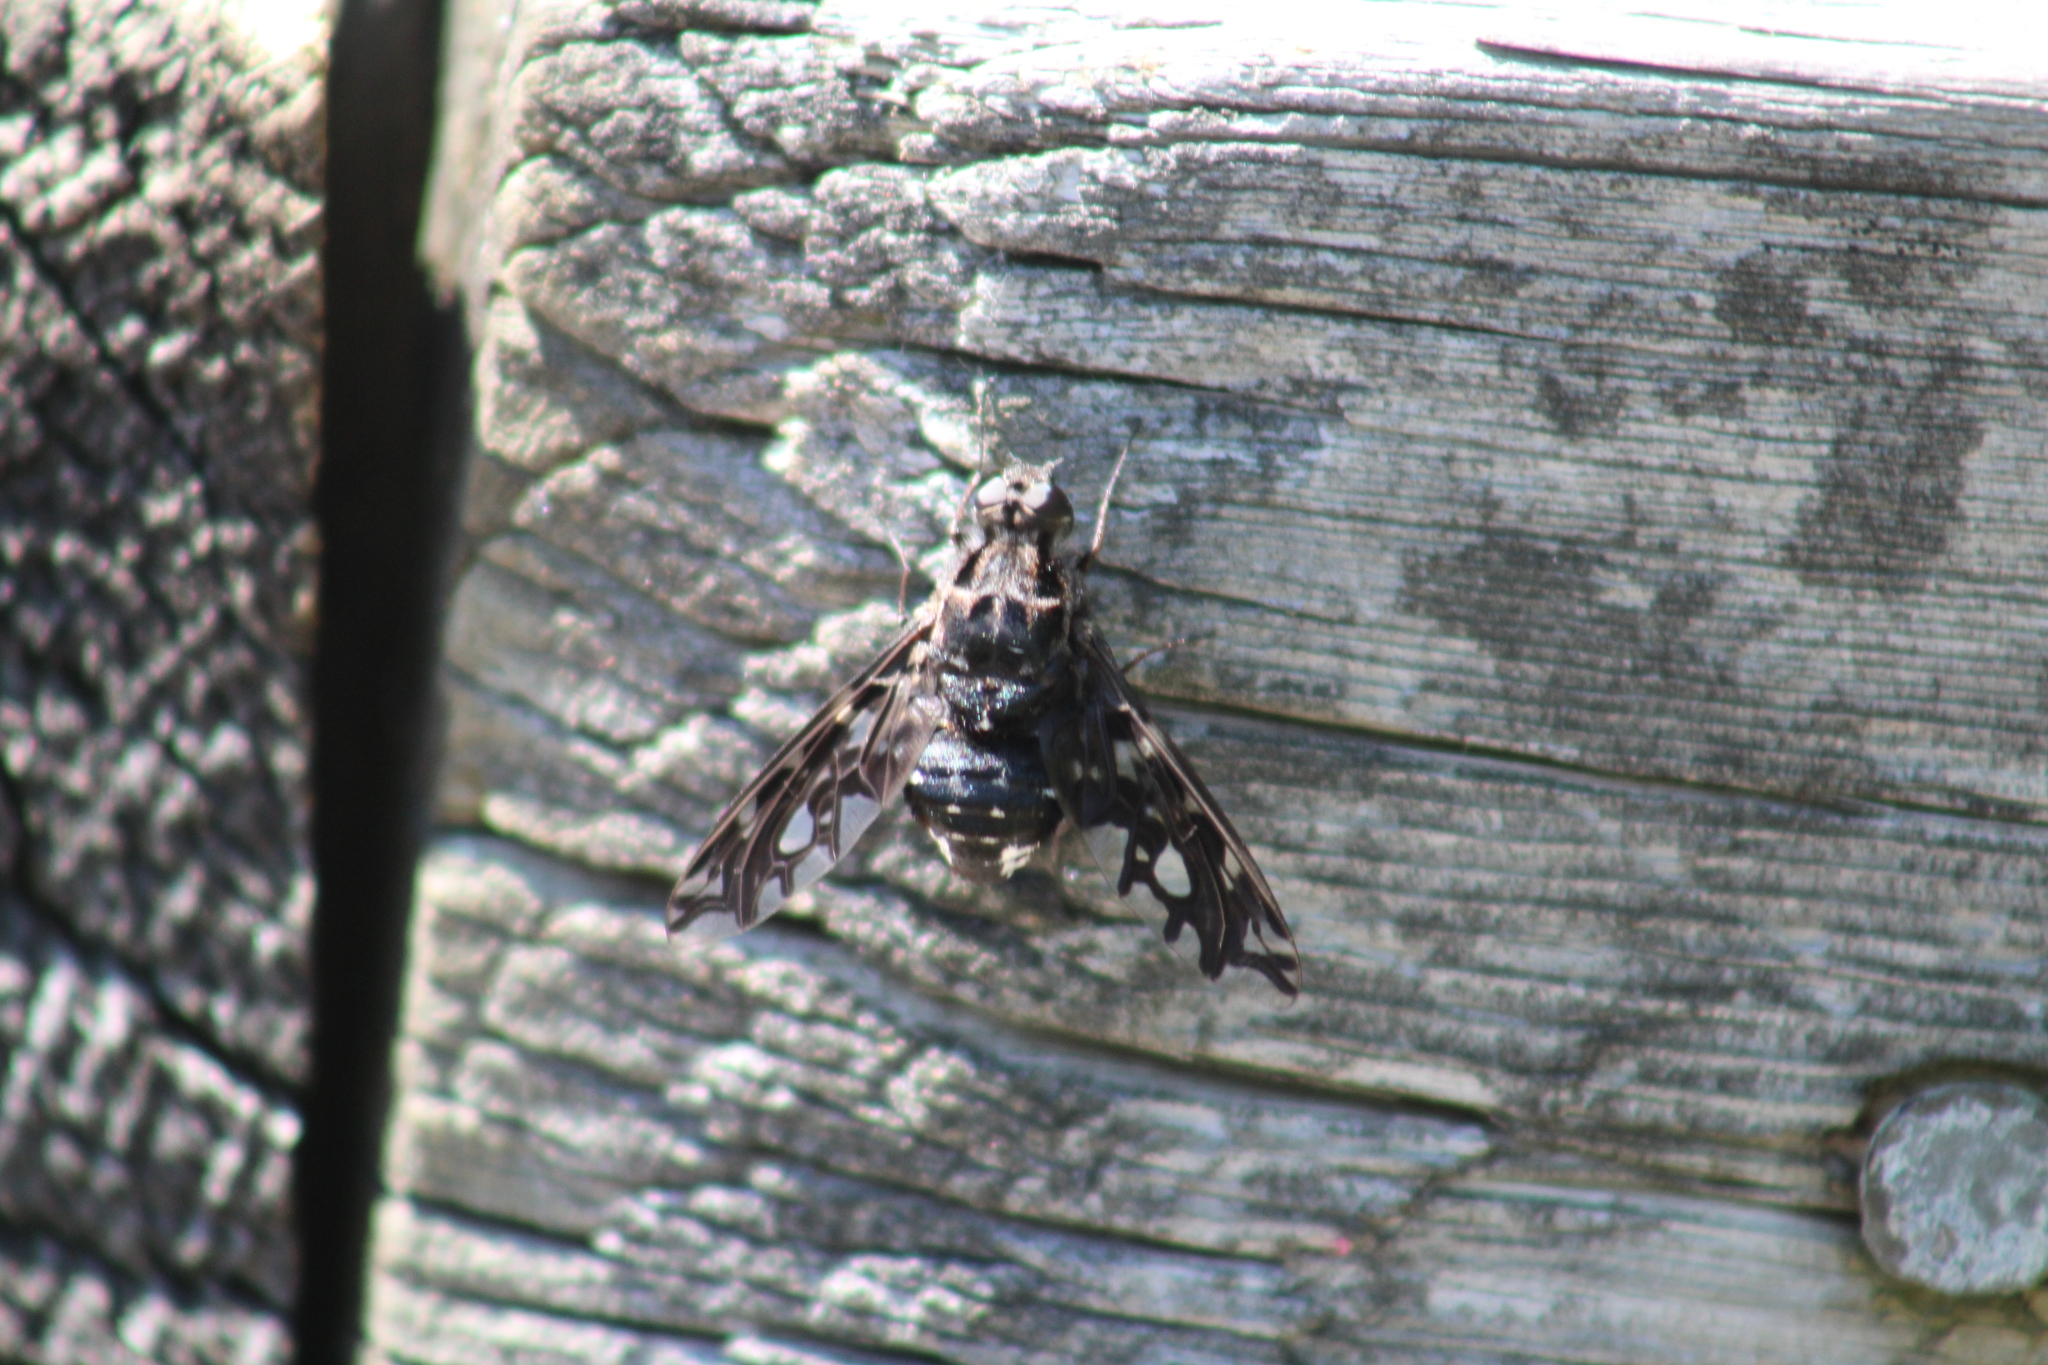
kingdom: Animalia
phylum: Arthropoda
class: Insecta
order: Diptera
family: Bombyliidae
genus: Xenox
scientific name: Xenox tigrinus
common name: Tiger bee fly
